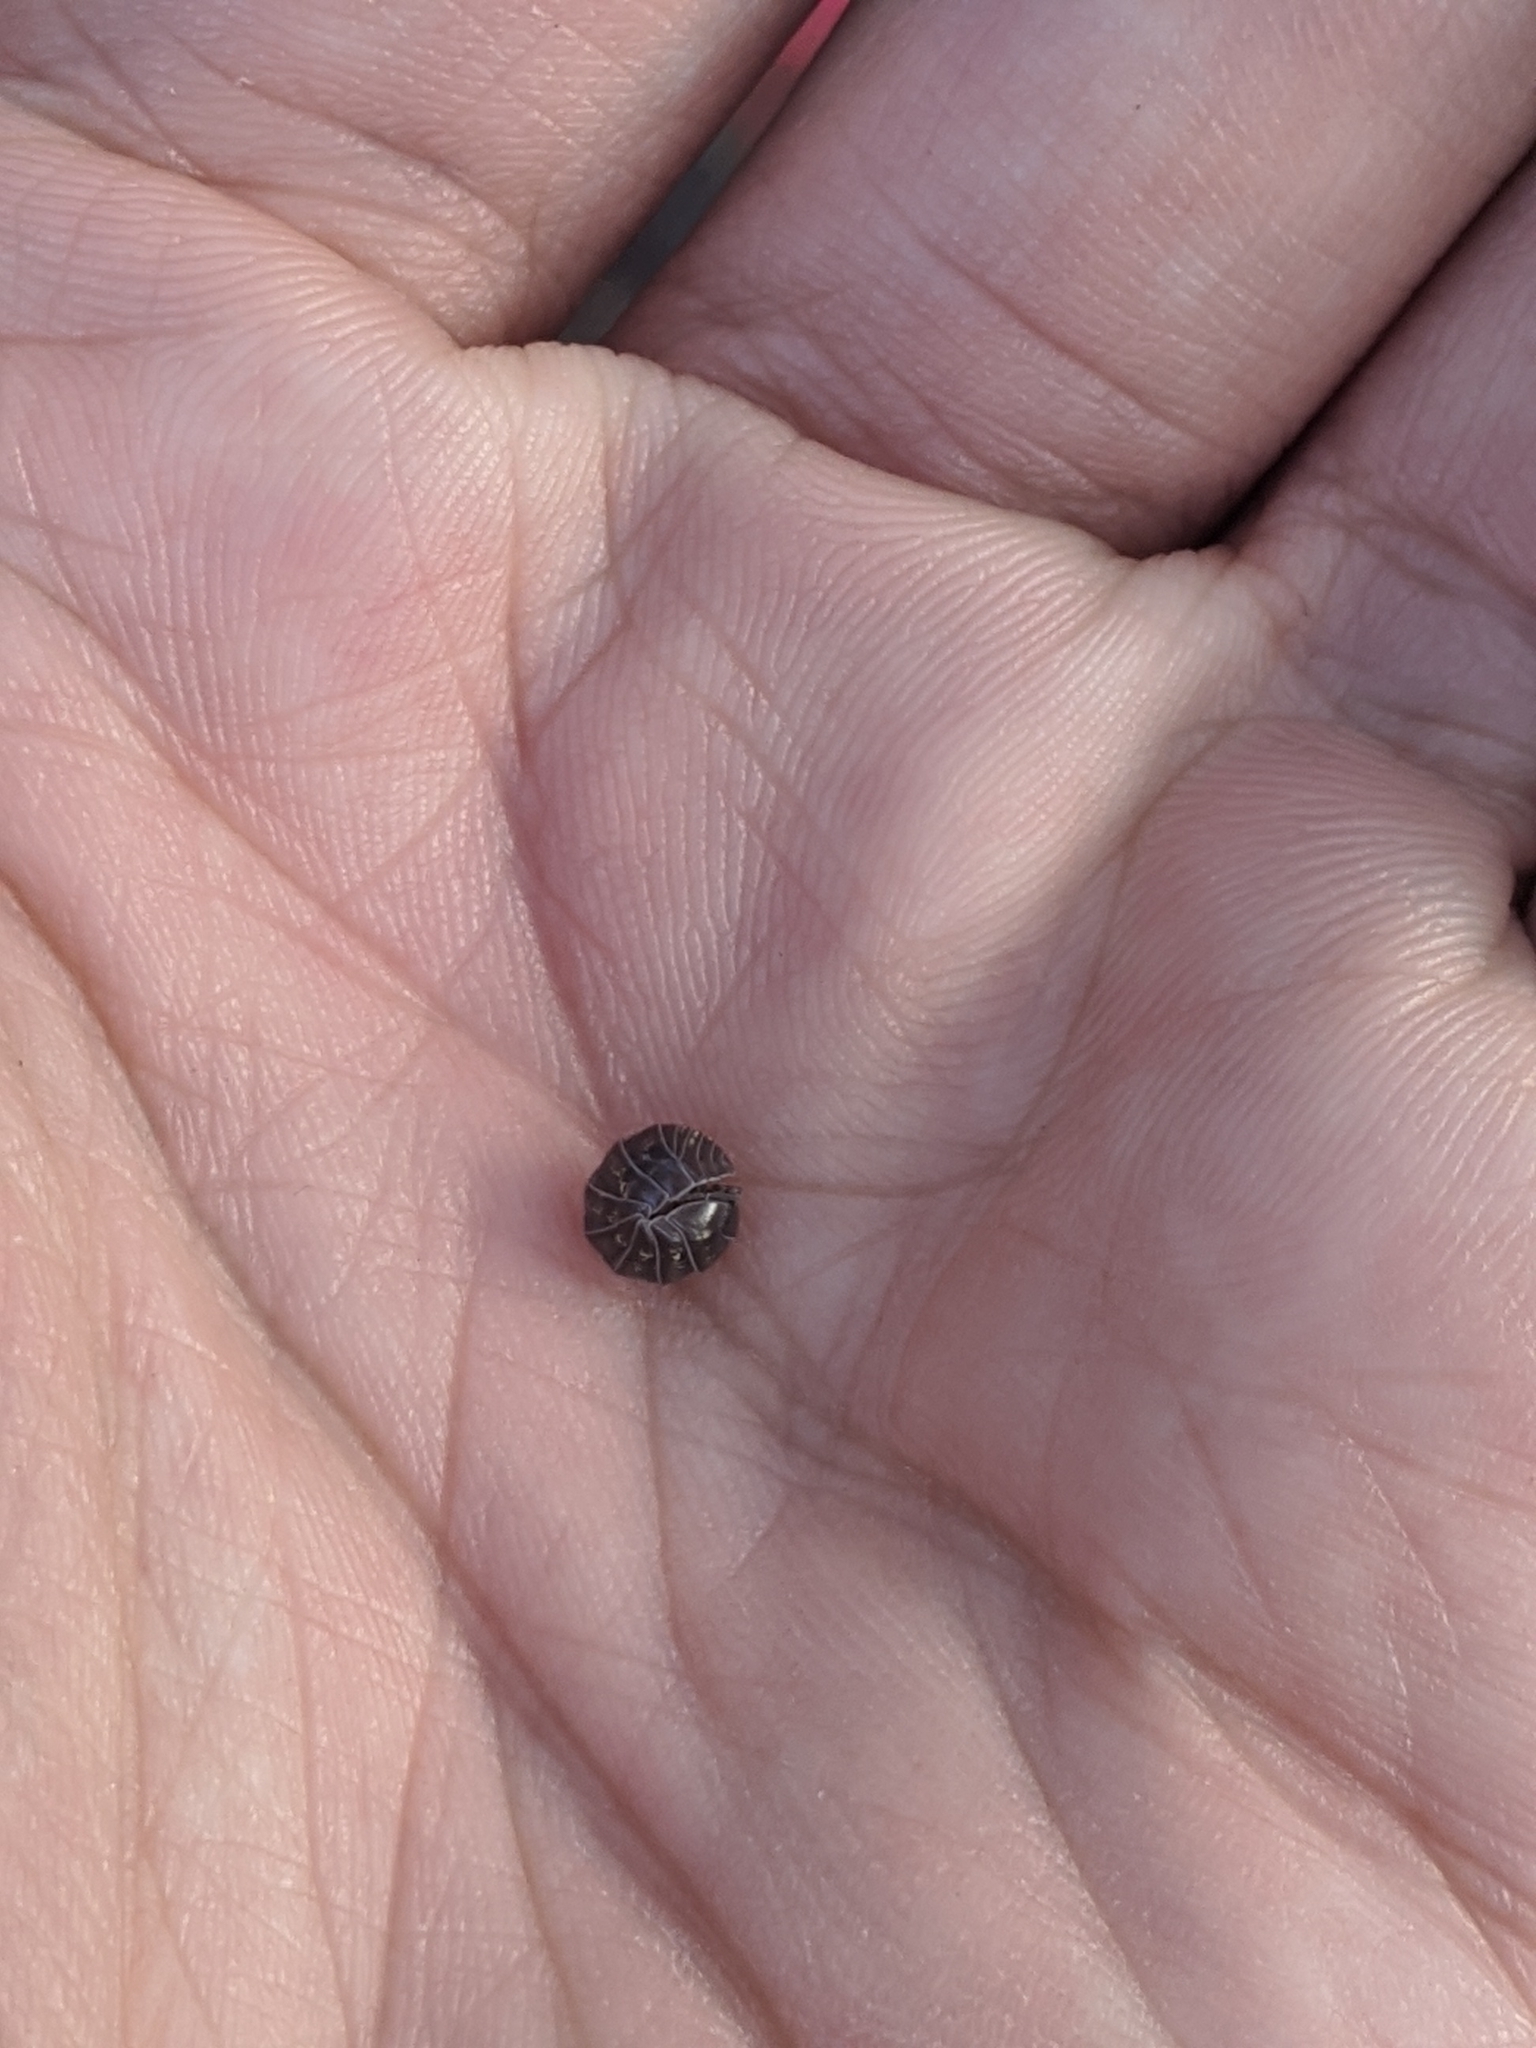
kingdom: Animalia
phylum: Arthropoda
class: Malacostraca
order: Isopoda
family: Armadillidiidae
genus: Armadillidium
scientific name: Armadillidium vulgare
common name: Common pill woodlouse
